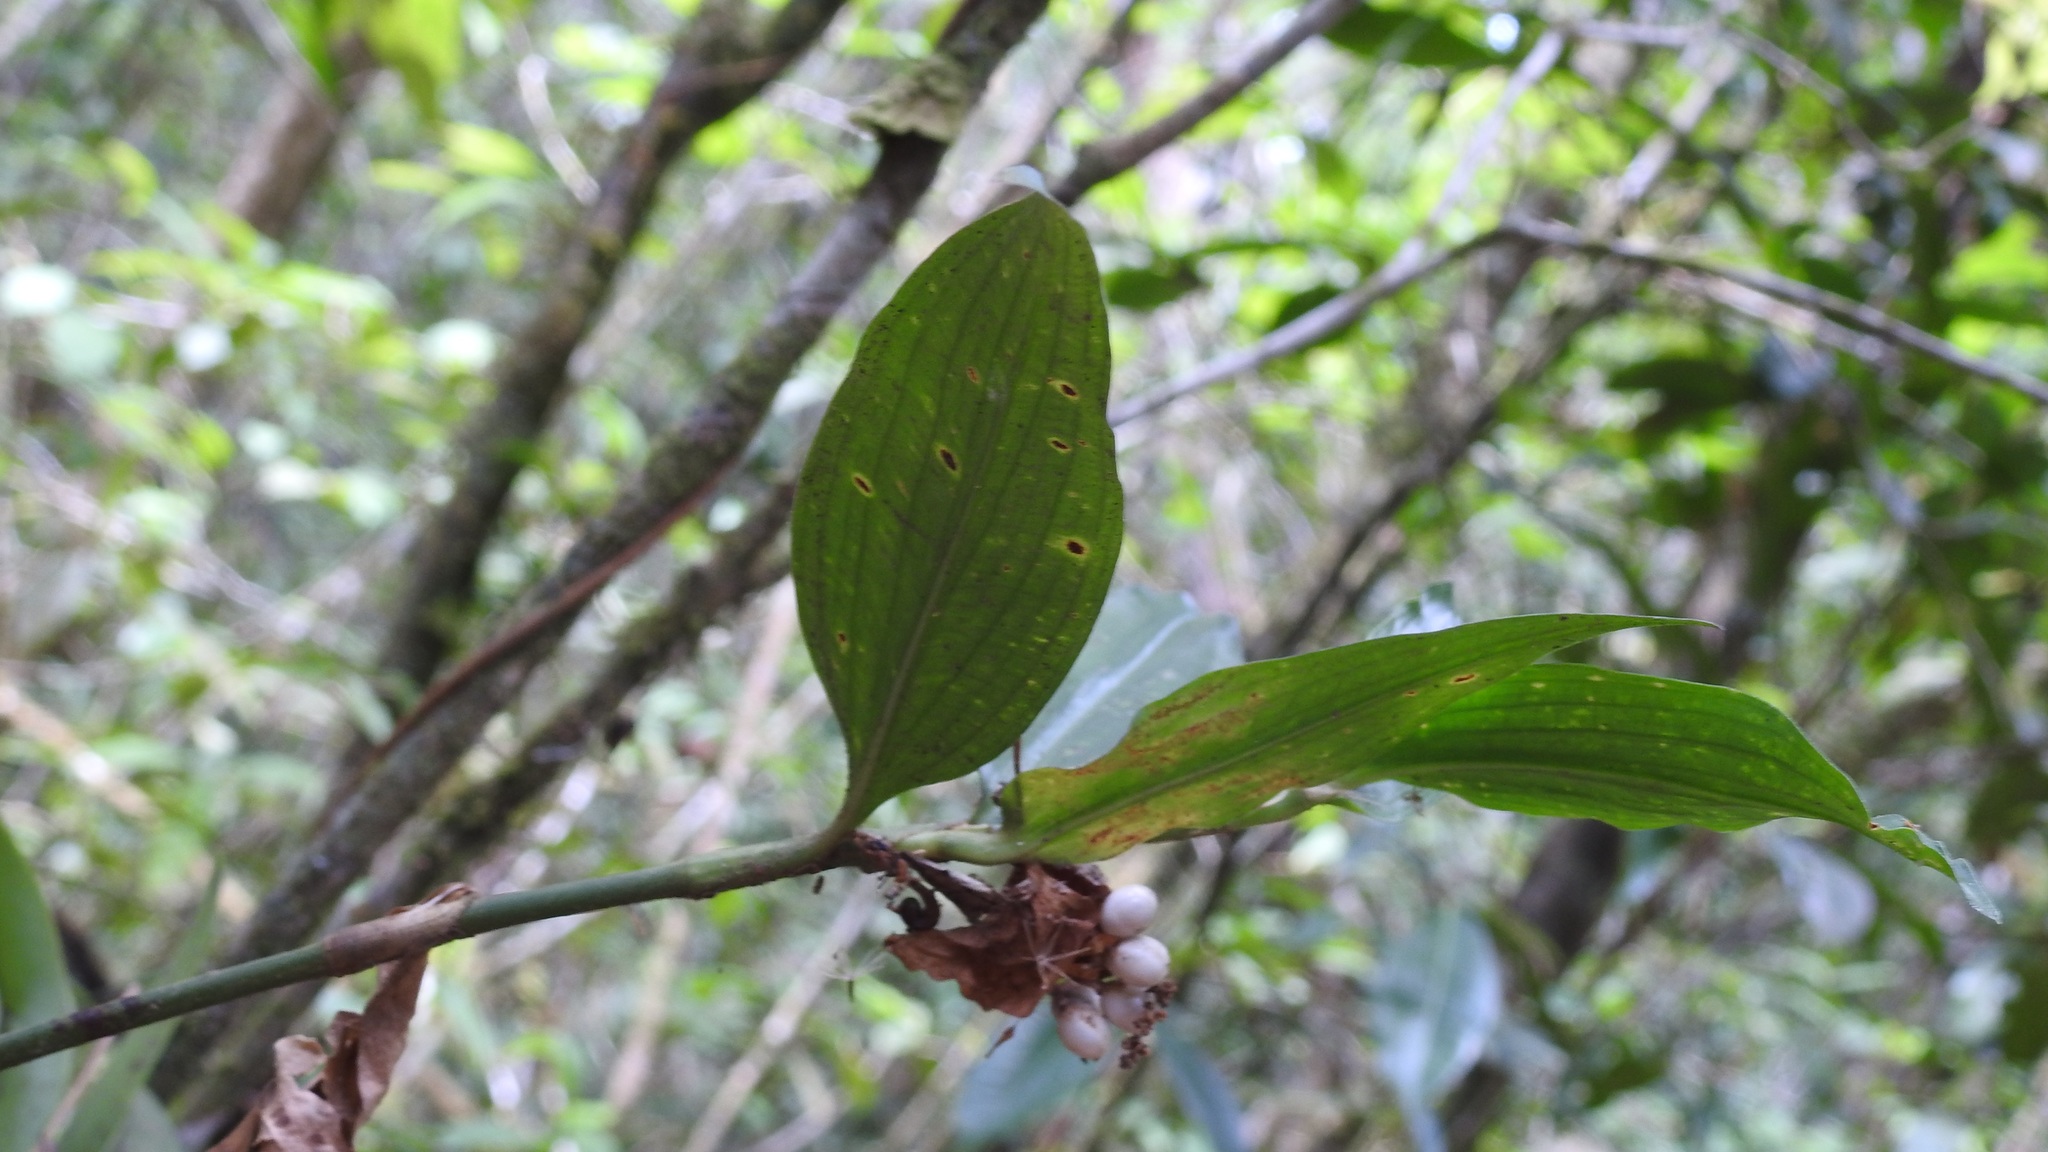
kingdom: Plantae
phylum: Tracheophyta
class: Liliopsida
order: Commelinales
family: Commelinaceae
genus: Commelina
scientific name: Commelina rufipes
